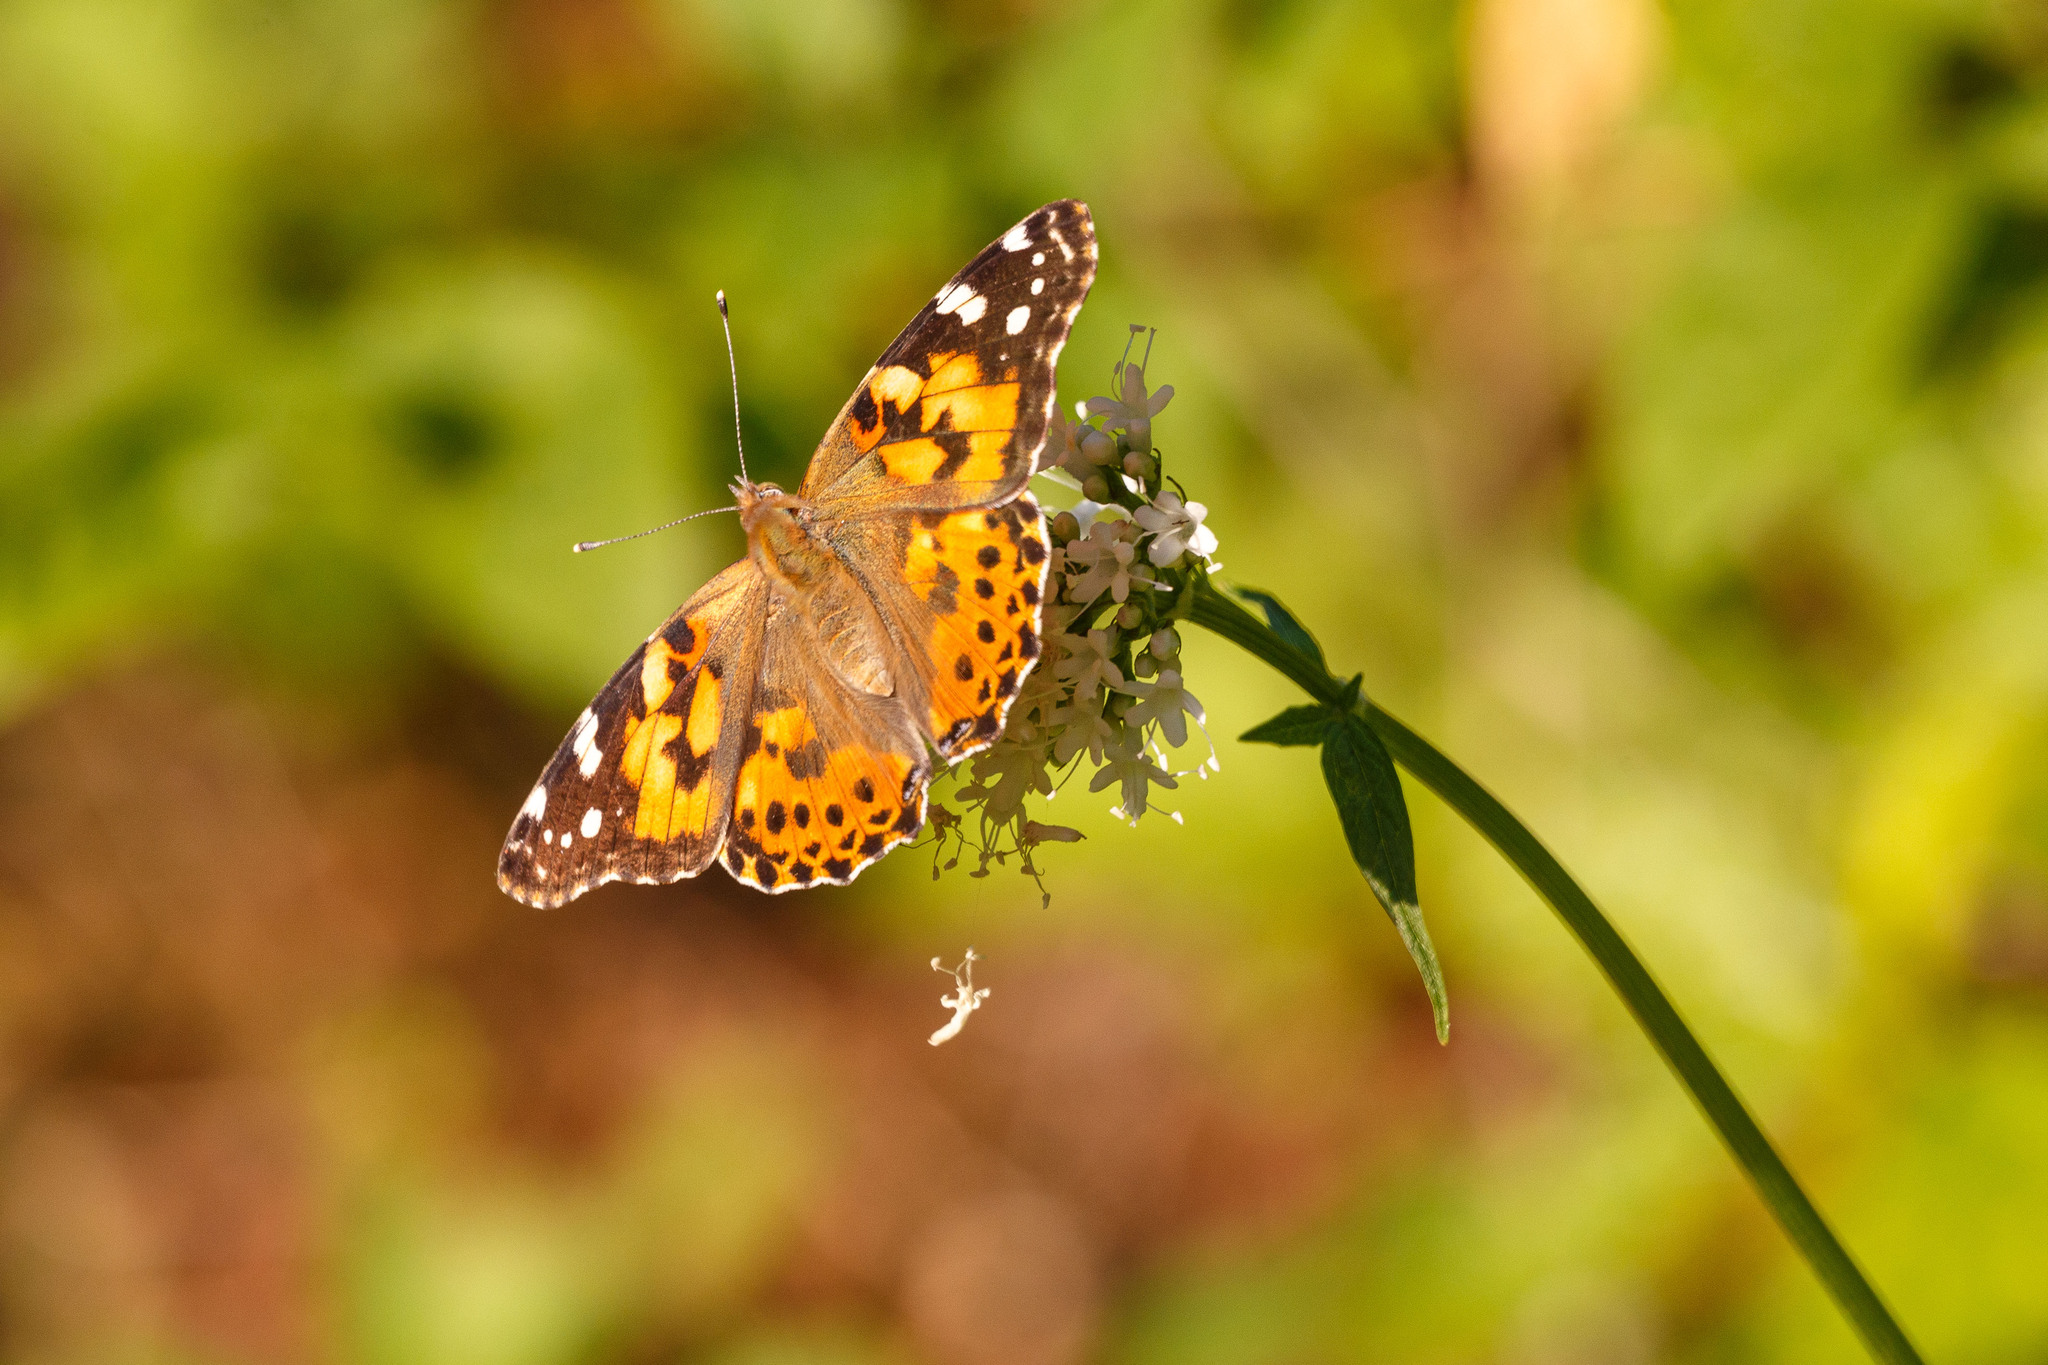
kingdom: Animalia
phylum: Arthropoda
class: Insecta
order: Lepidoptera
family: Nymphalidae
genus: Vanessa
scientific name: Vanessa cardui
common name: Painted lady
